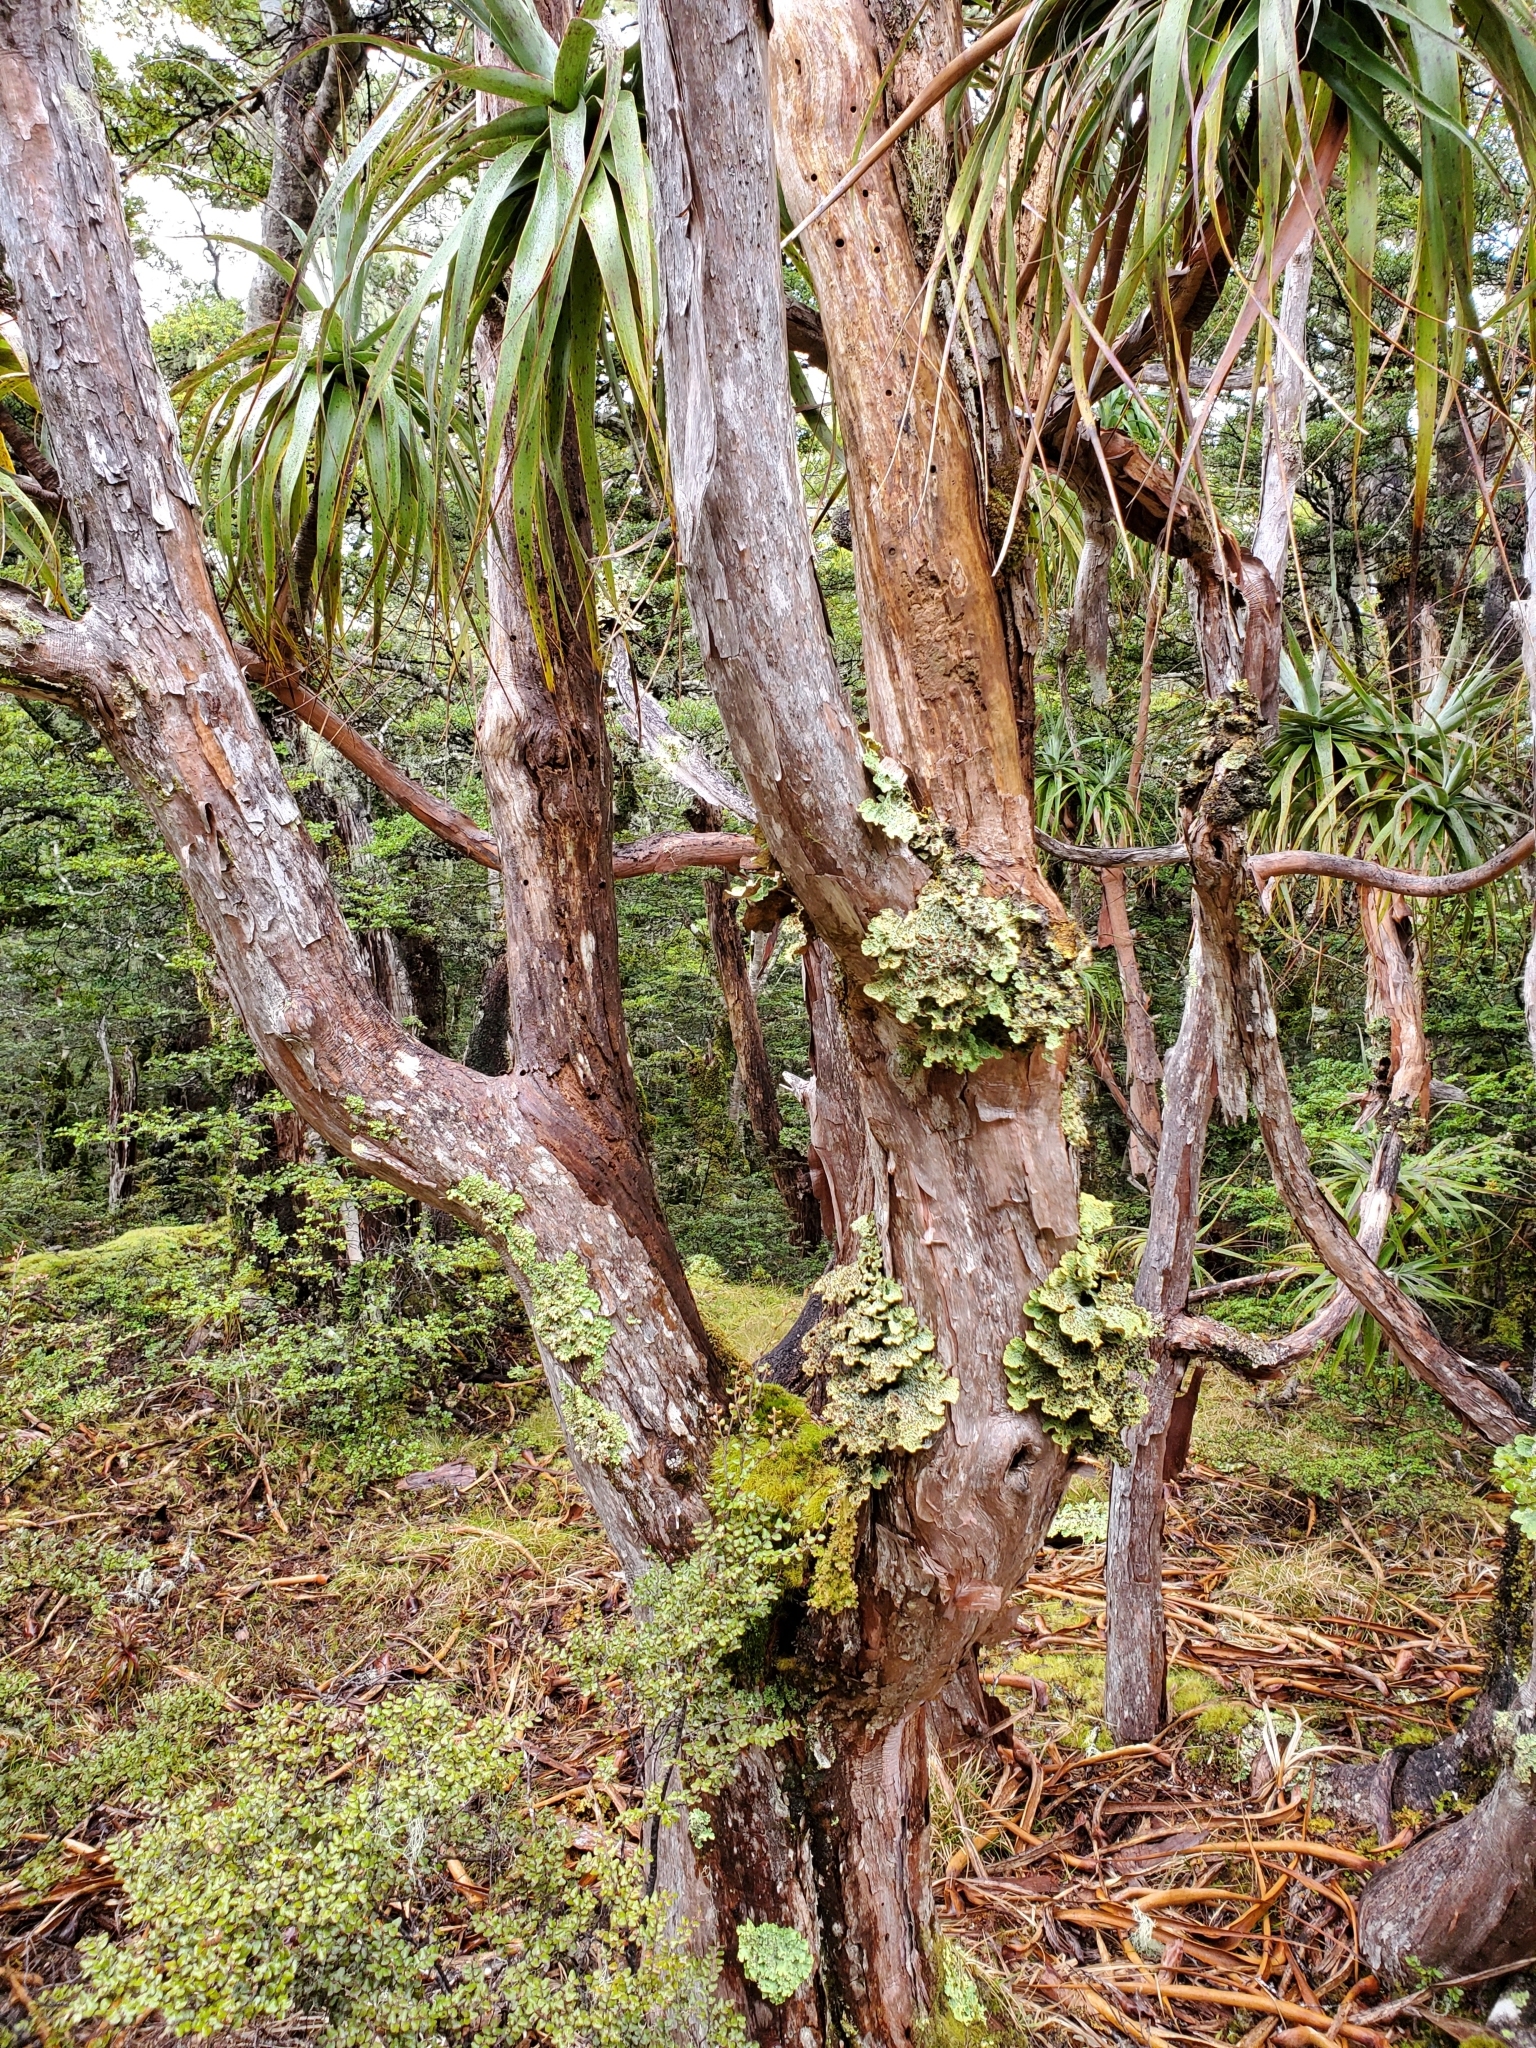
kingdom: Plantae
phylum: Tracheophyta
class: Magnoliopsida
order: Ericales
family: Ericaceae
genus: Dracophyllum
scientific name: Dracophyllum traversii
